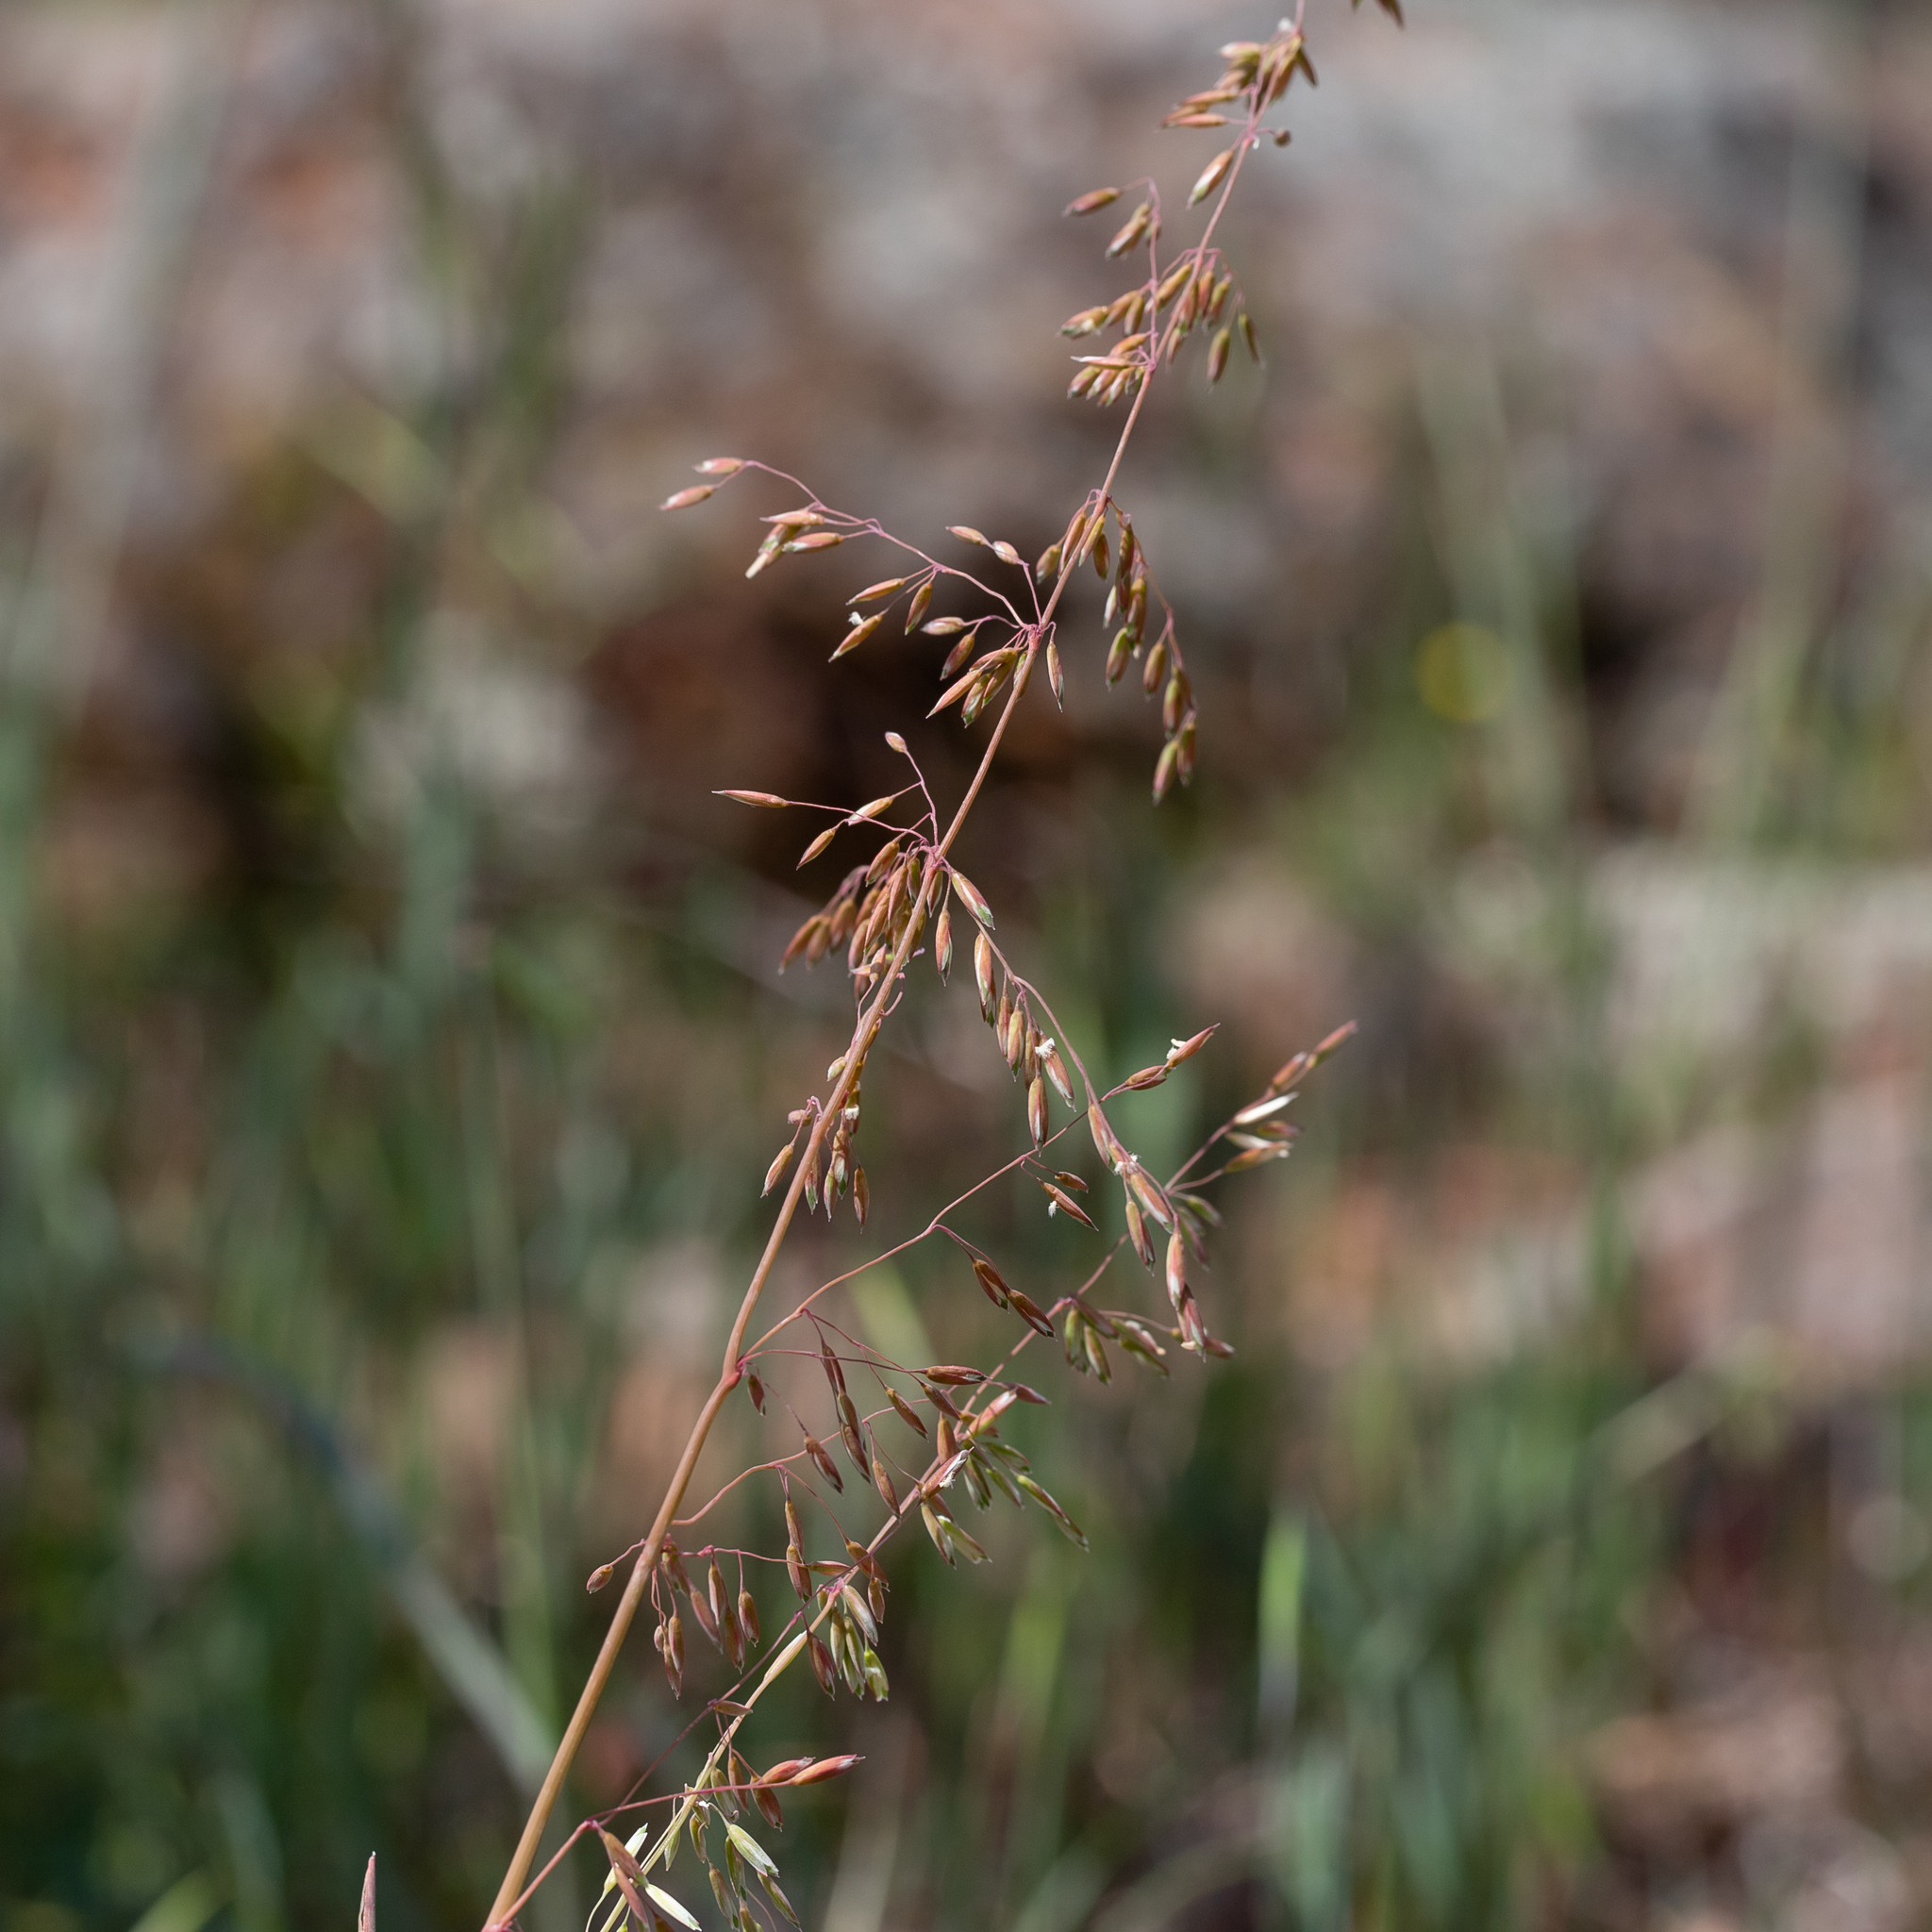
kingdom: Plantae
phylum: Tracheophyta
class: Liliopsida
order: Poales
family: Poaceae
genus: Ehrharta
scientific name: Ehrharta calycina
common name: Perennial veldtgrass
